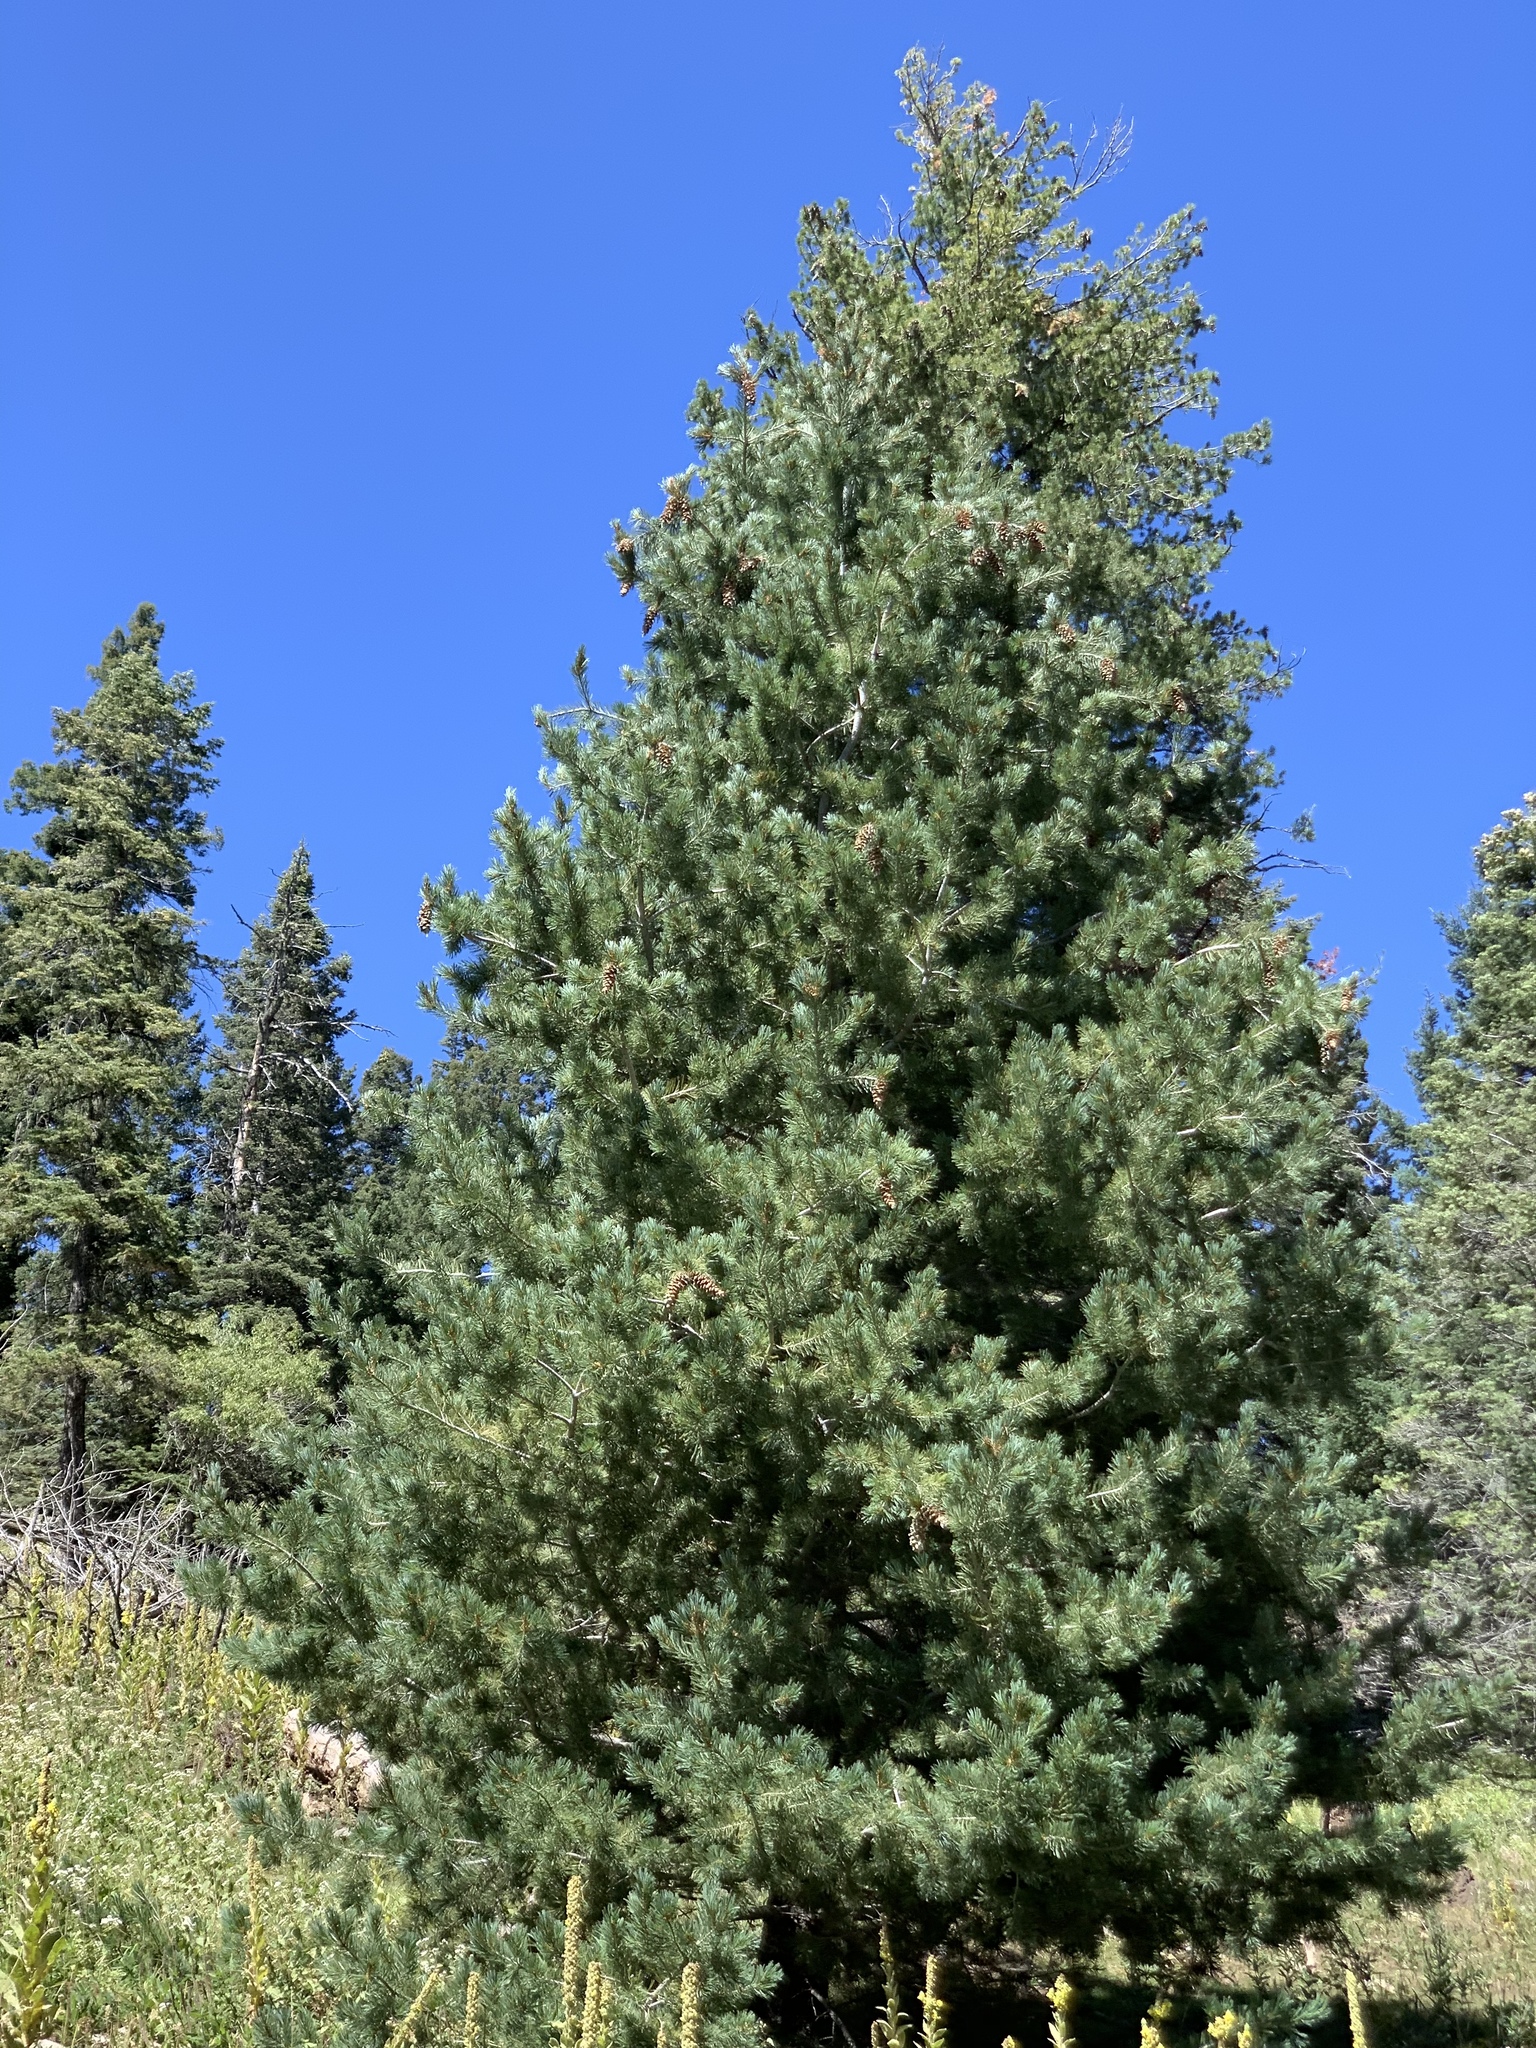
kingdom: Plantae
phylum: Tracheophyta
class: Pinopsida
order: Pinales
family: Pinaceae
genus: Pinus
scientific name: Pinus strobiformis
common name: Southwestern white pine
